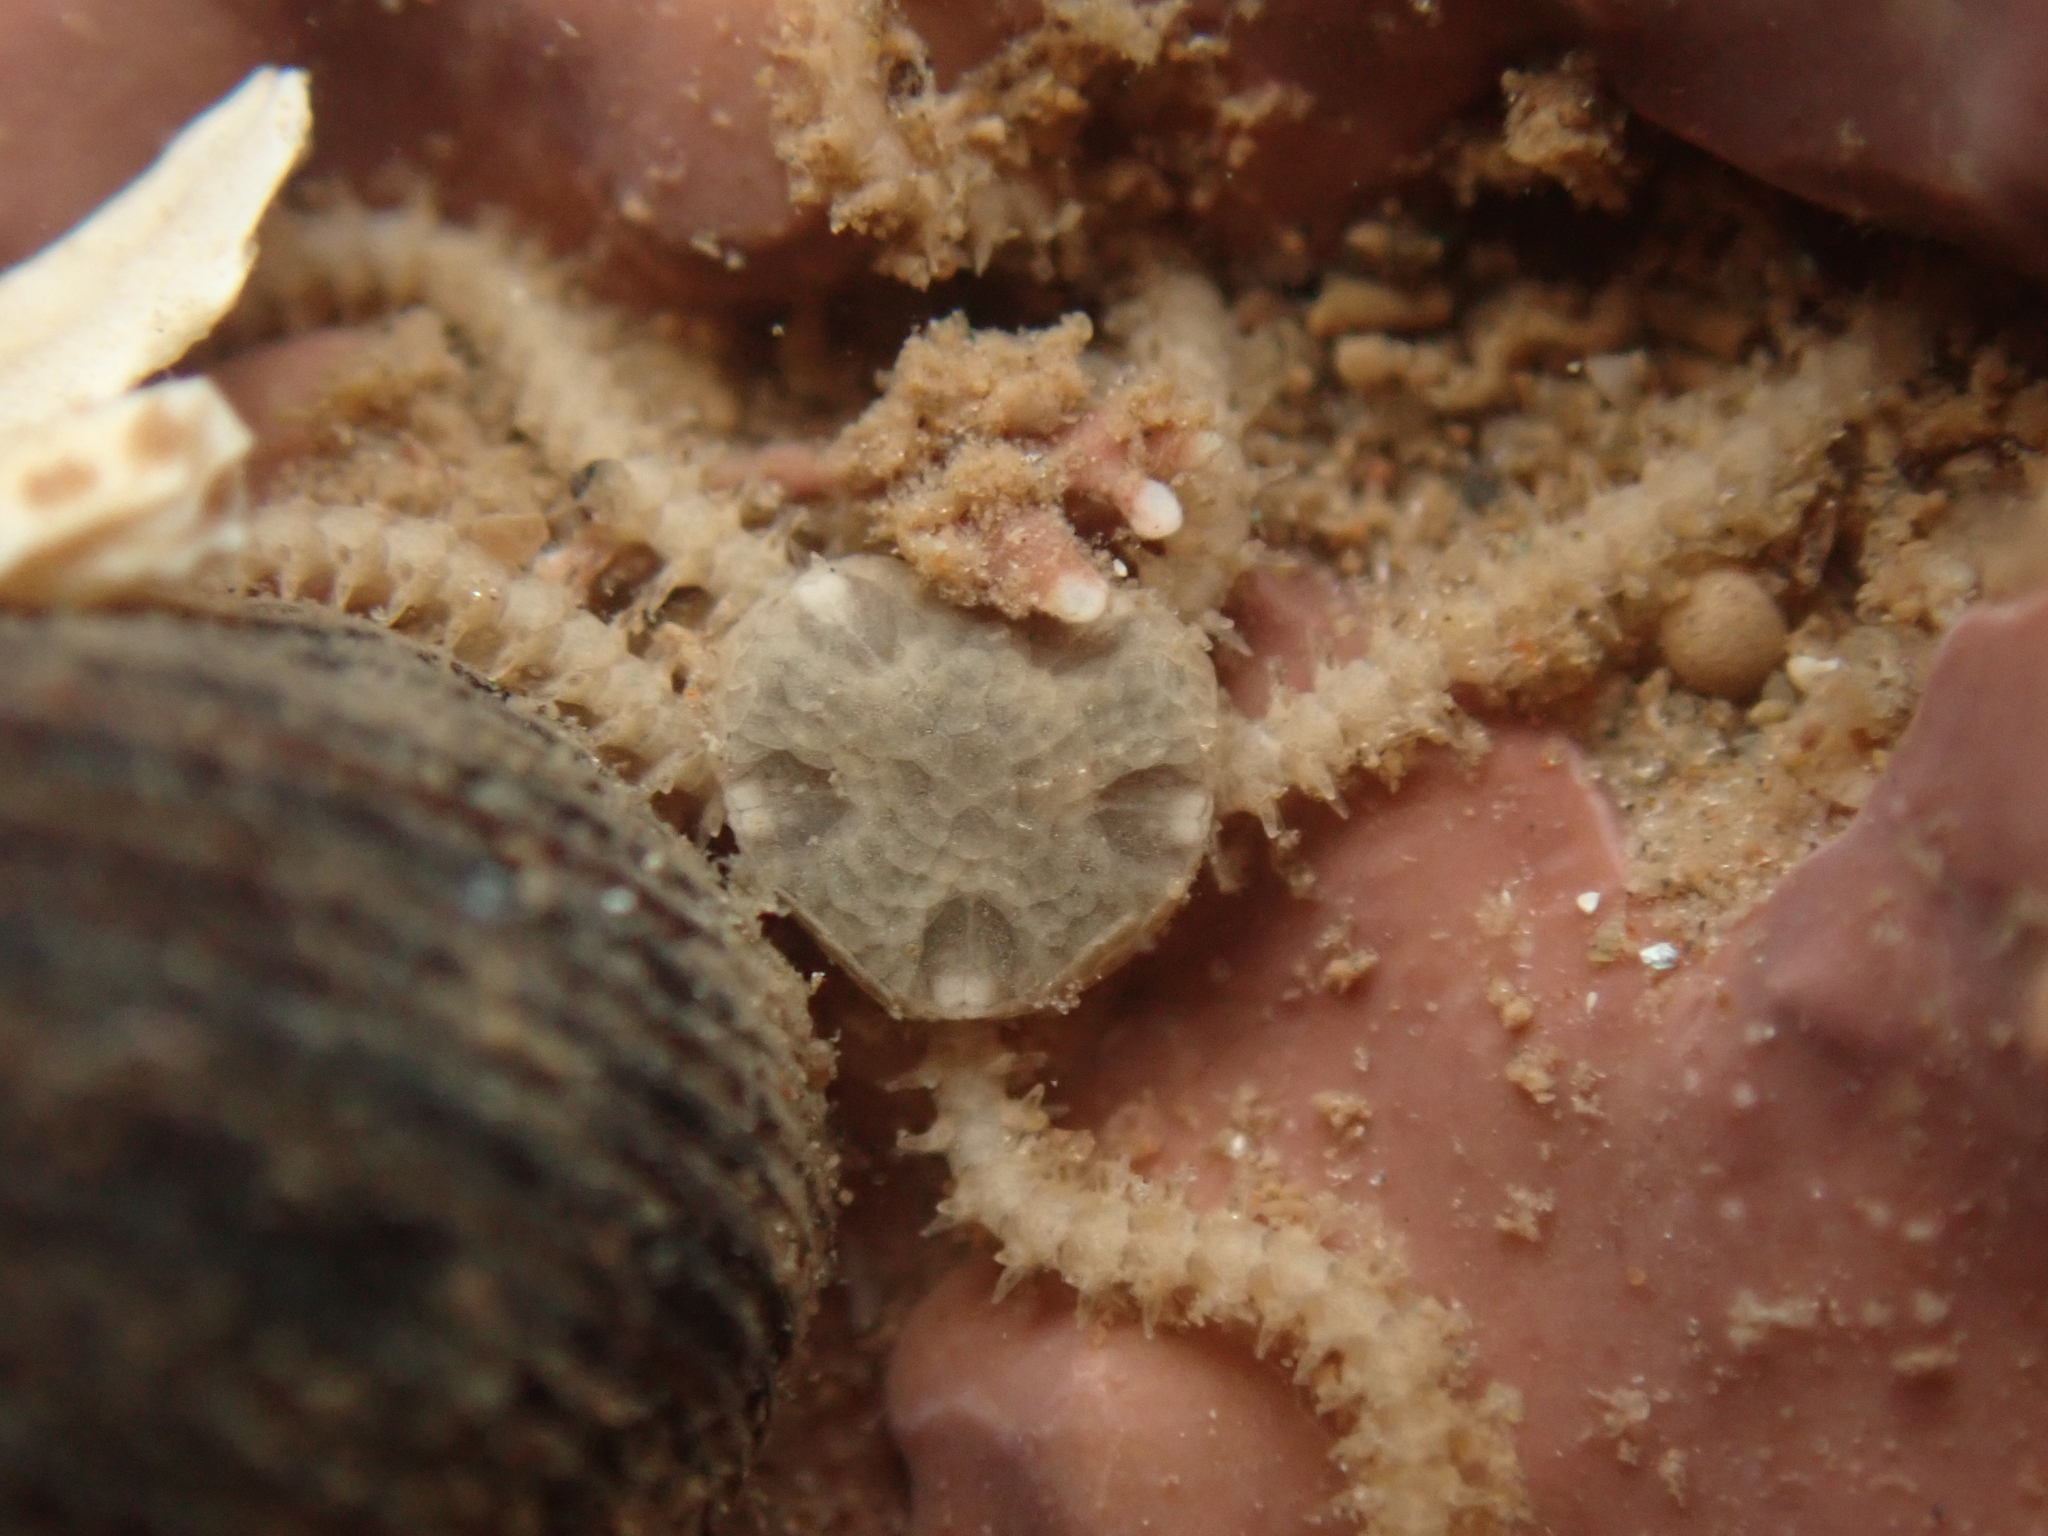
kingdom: Animalia
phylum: Echinodermata
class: Ophiuroidea
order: Amphilepidida
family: Amphiuridae
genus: Amphipholis
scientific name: Amphipholis squamata
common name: Brooding snake star
